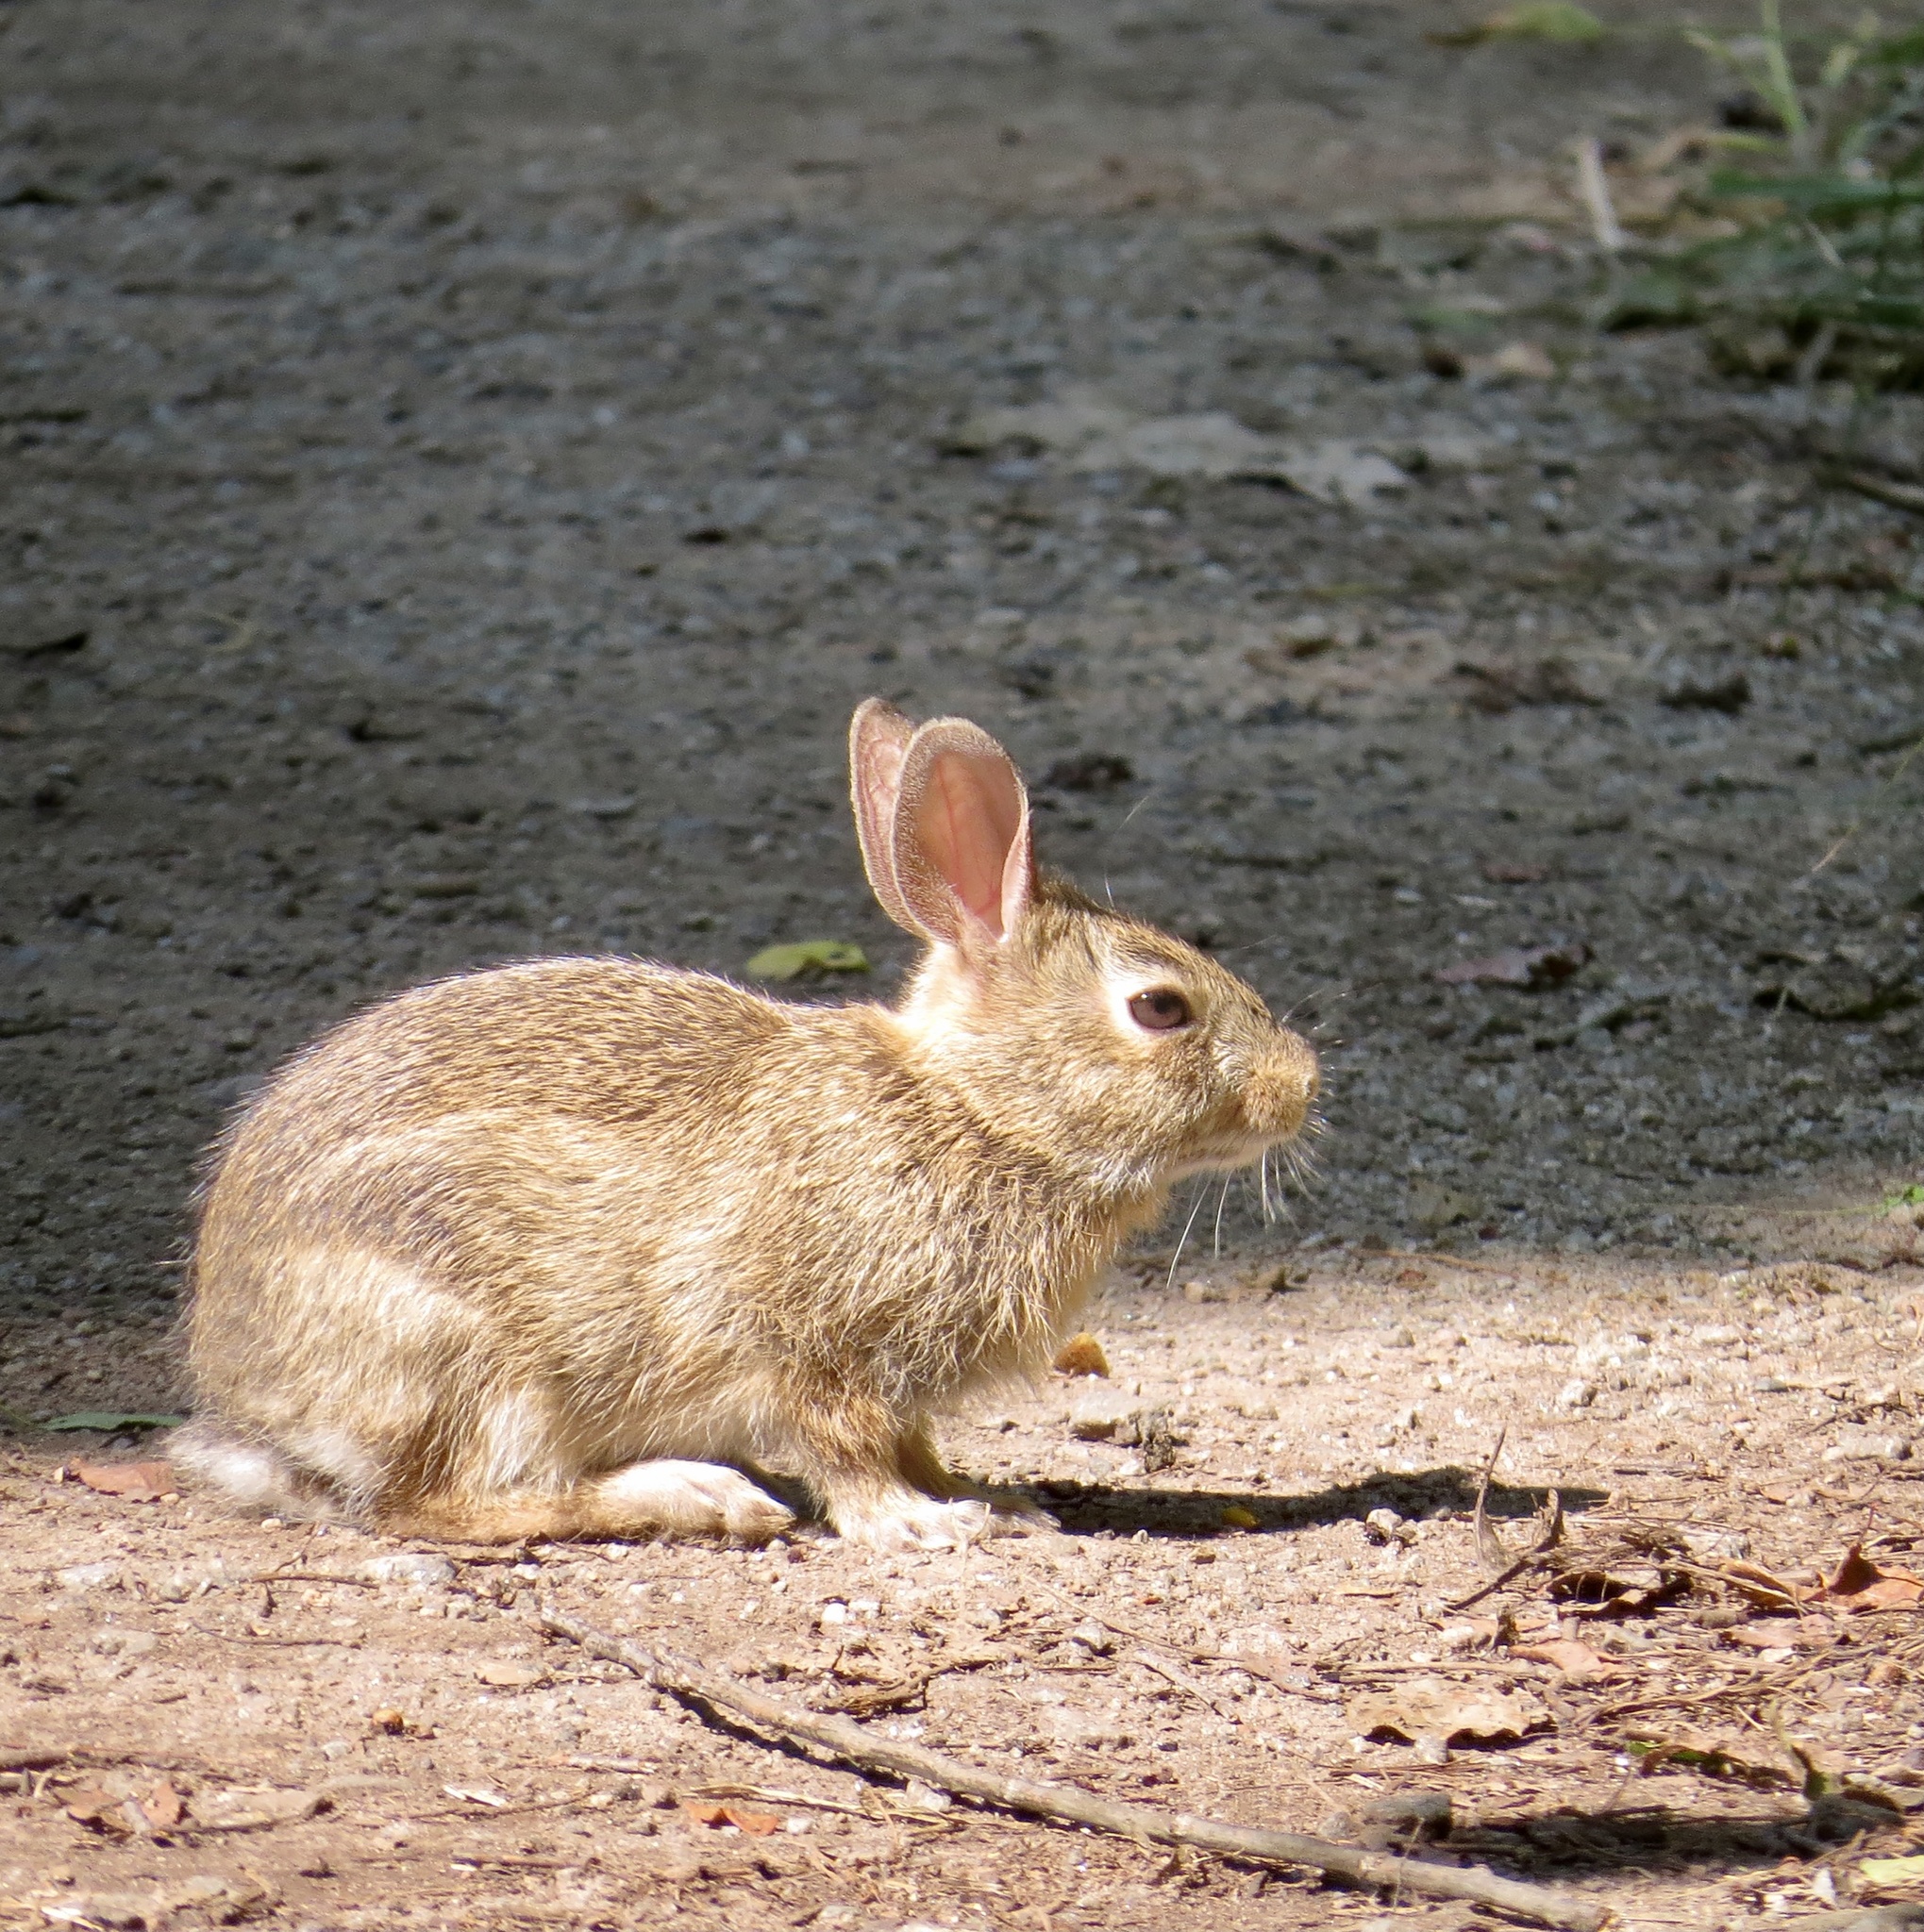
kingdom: Animalia
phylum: Chordata
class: Mammalia
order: Lagomorpha
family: Leporidae
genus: Sylvilagus
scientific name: Sylvilagus floridanus
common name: Eastern cottontail
